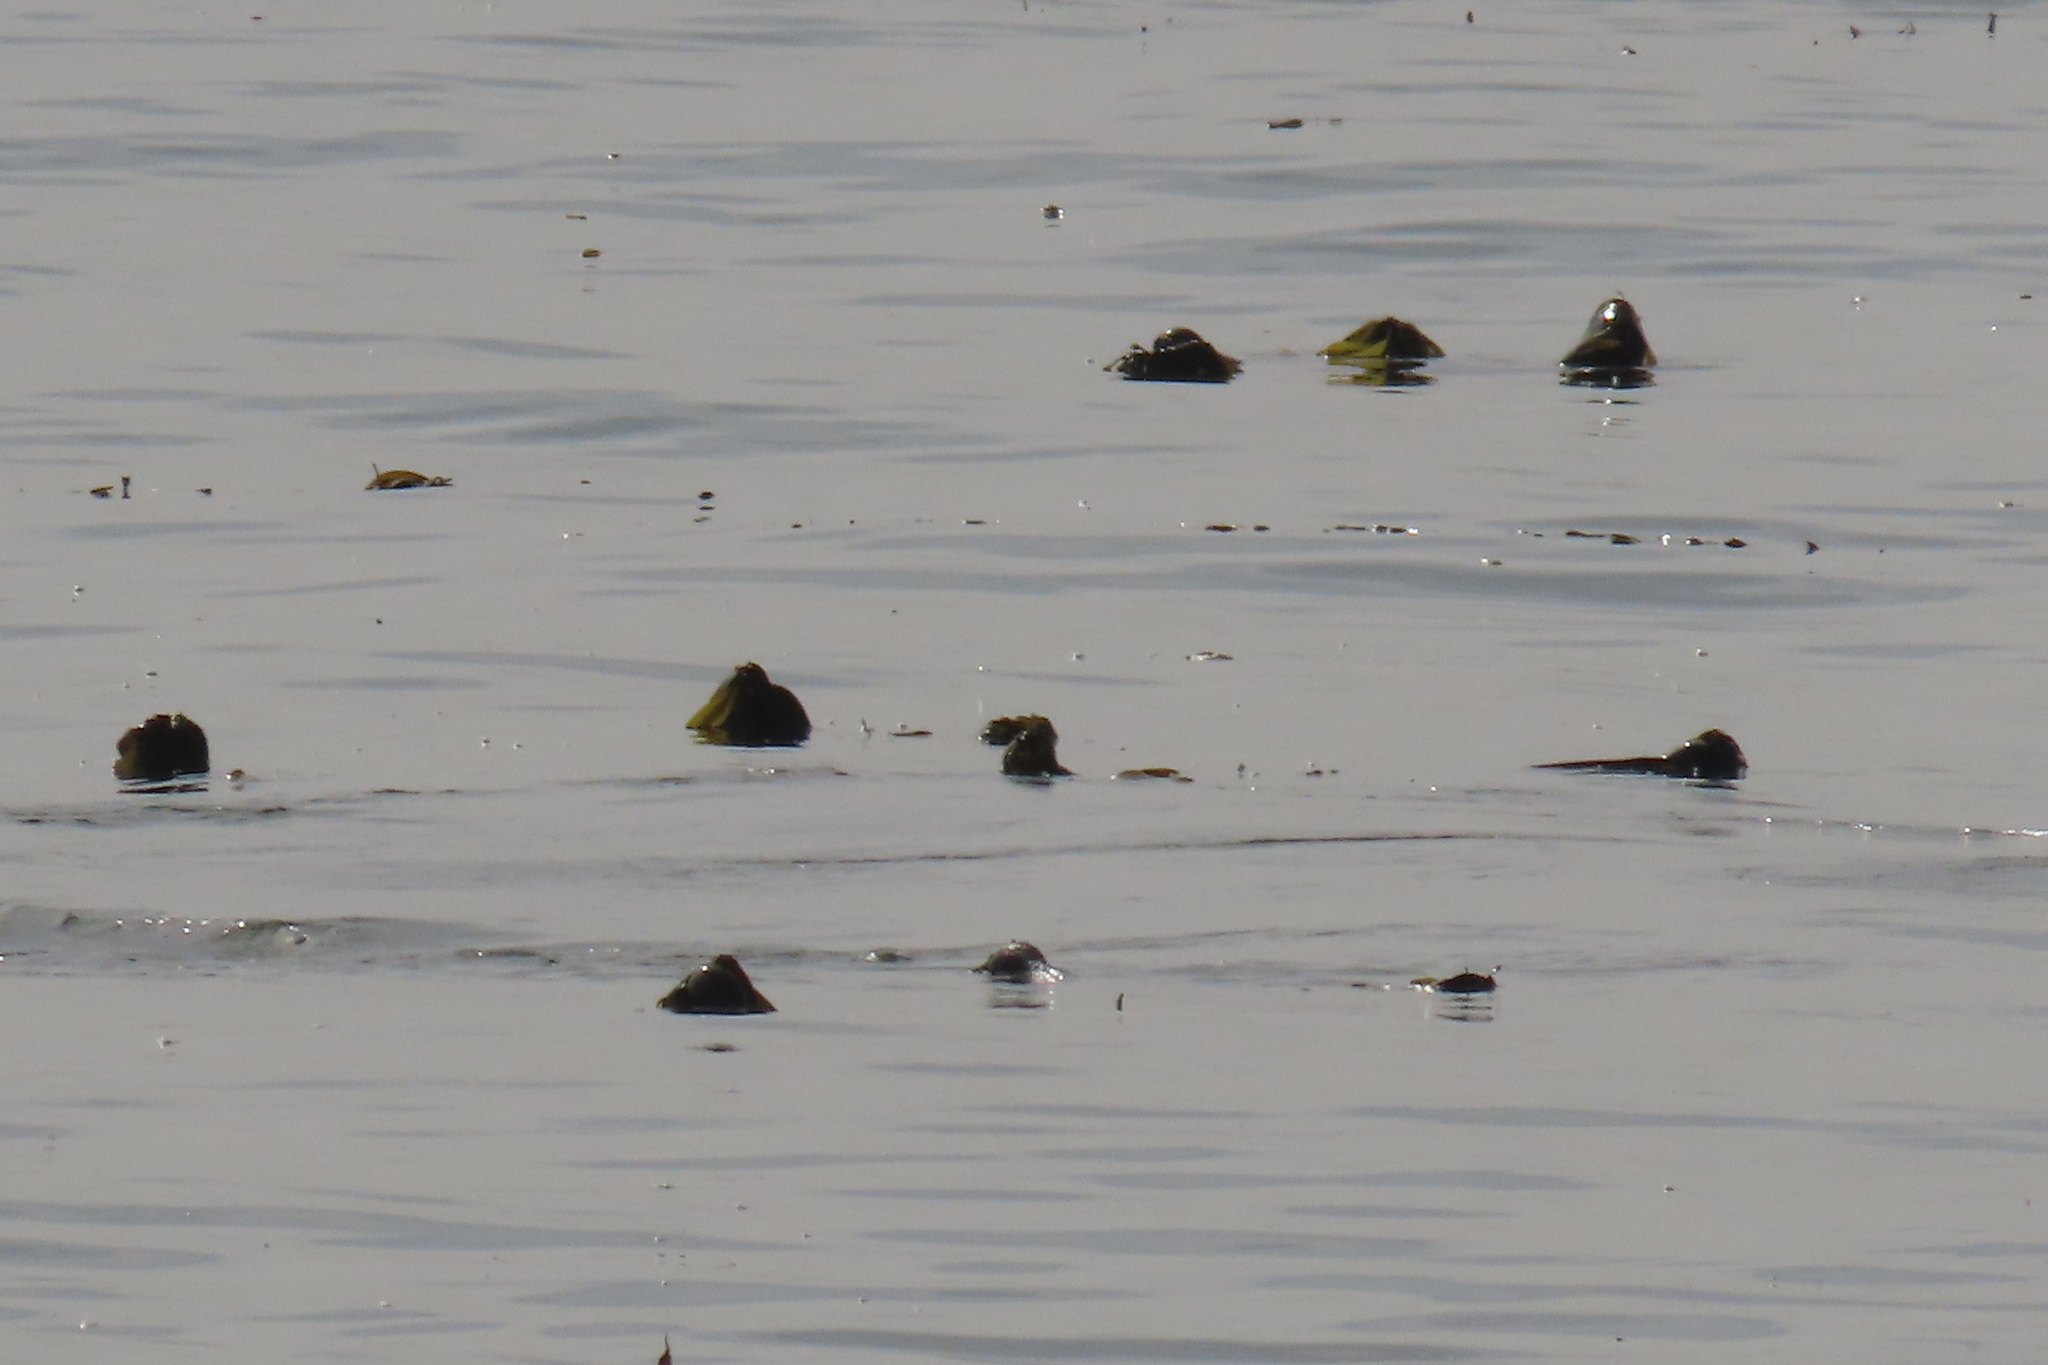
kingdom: Chromista
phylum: Ochrophyta
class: Phaeophyceae
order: Laminariales
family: Laminariaceae
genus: Nereocystis
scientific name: Nereocystis luetkeana
